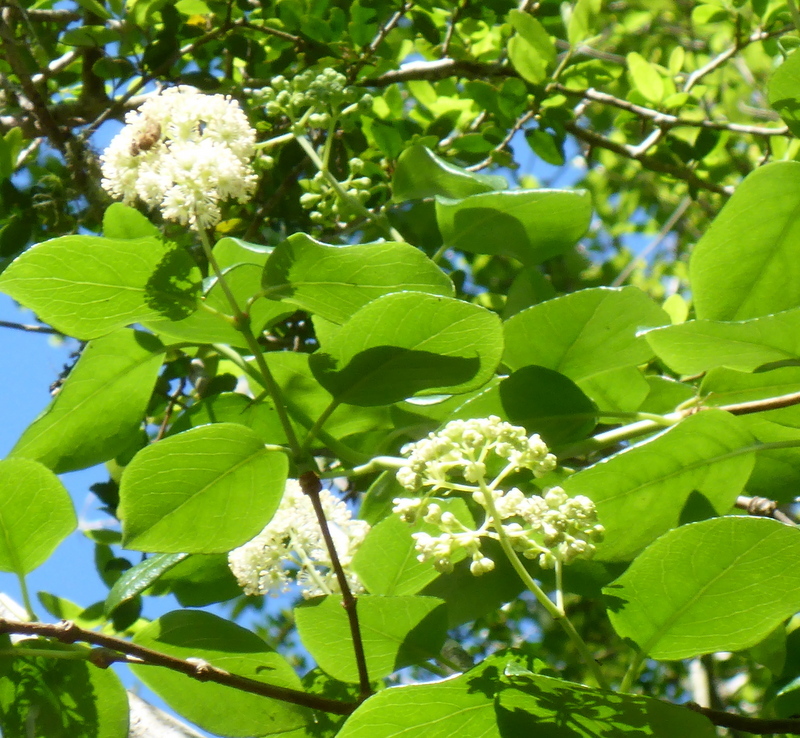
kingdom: Plantae
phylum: Tracheophyta
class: Magnoliopsida
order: Cornales
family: Hydrangeaceae
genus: Hydrangea
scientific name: Hydrangea barbara
